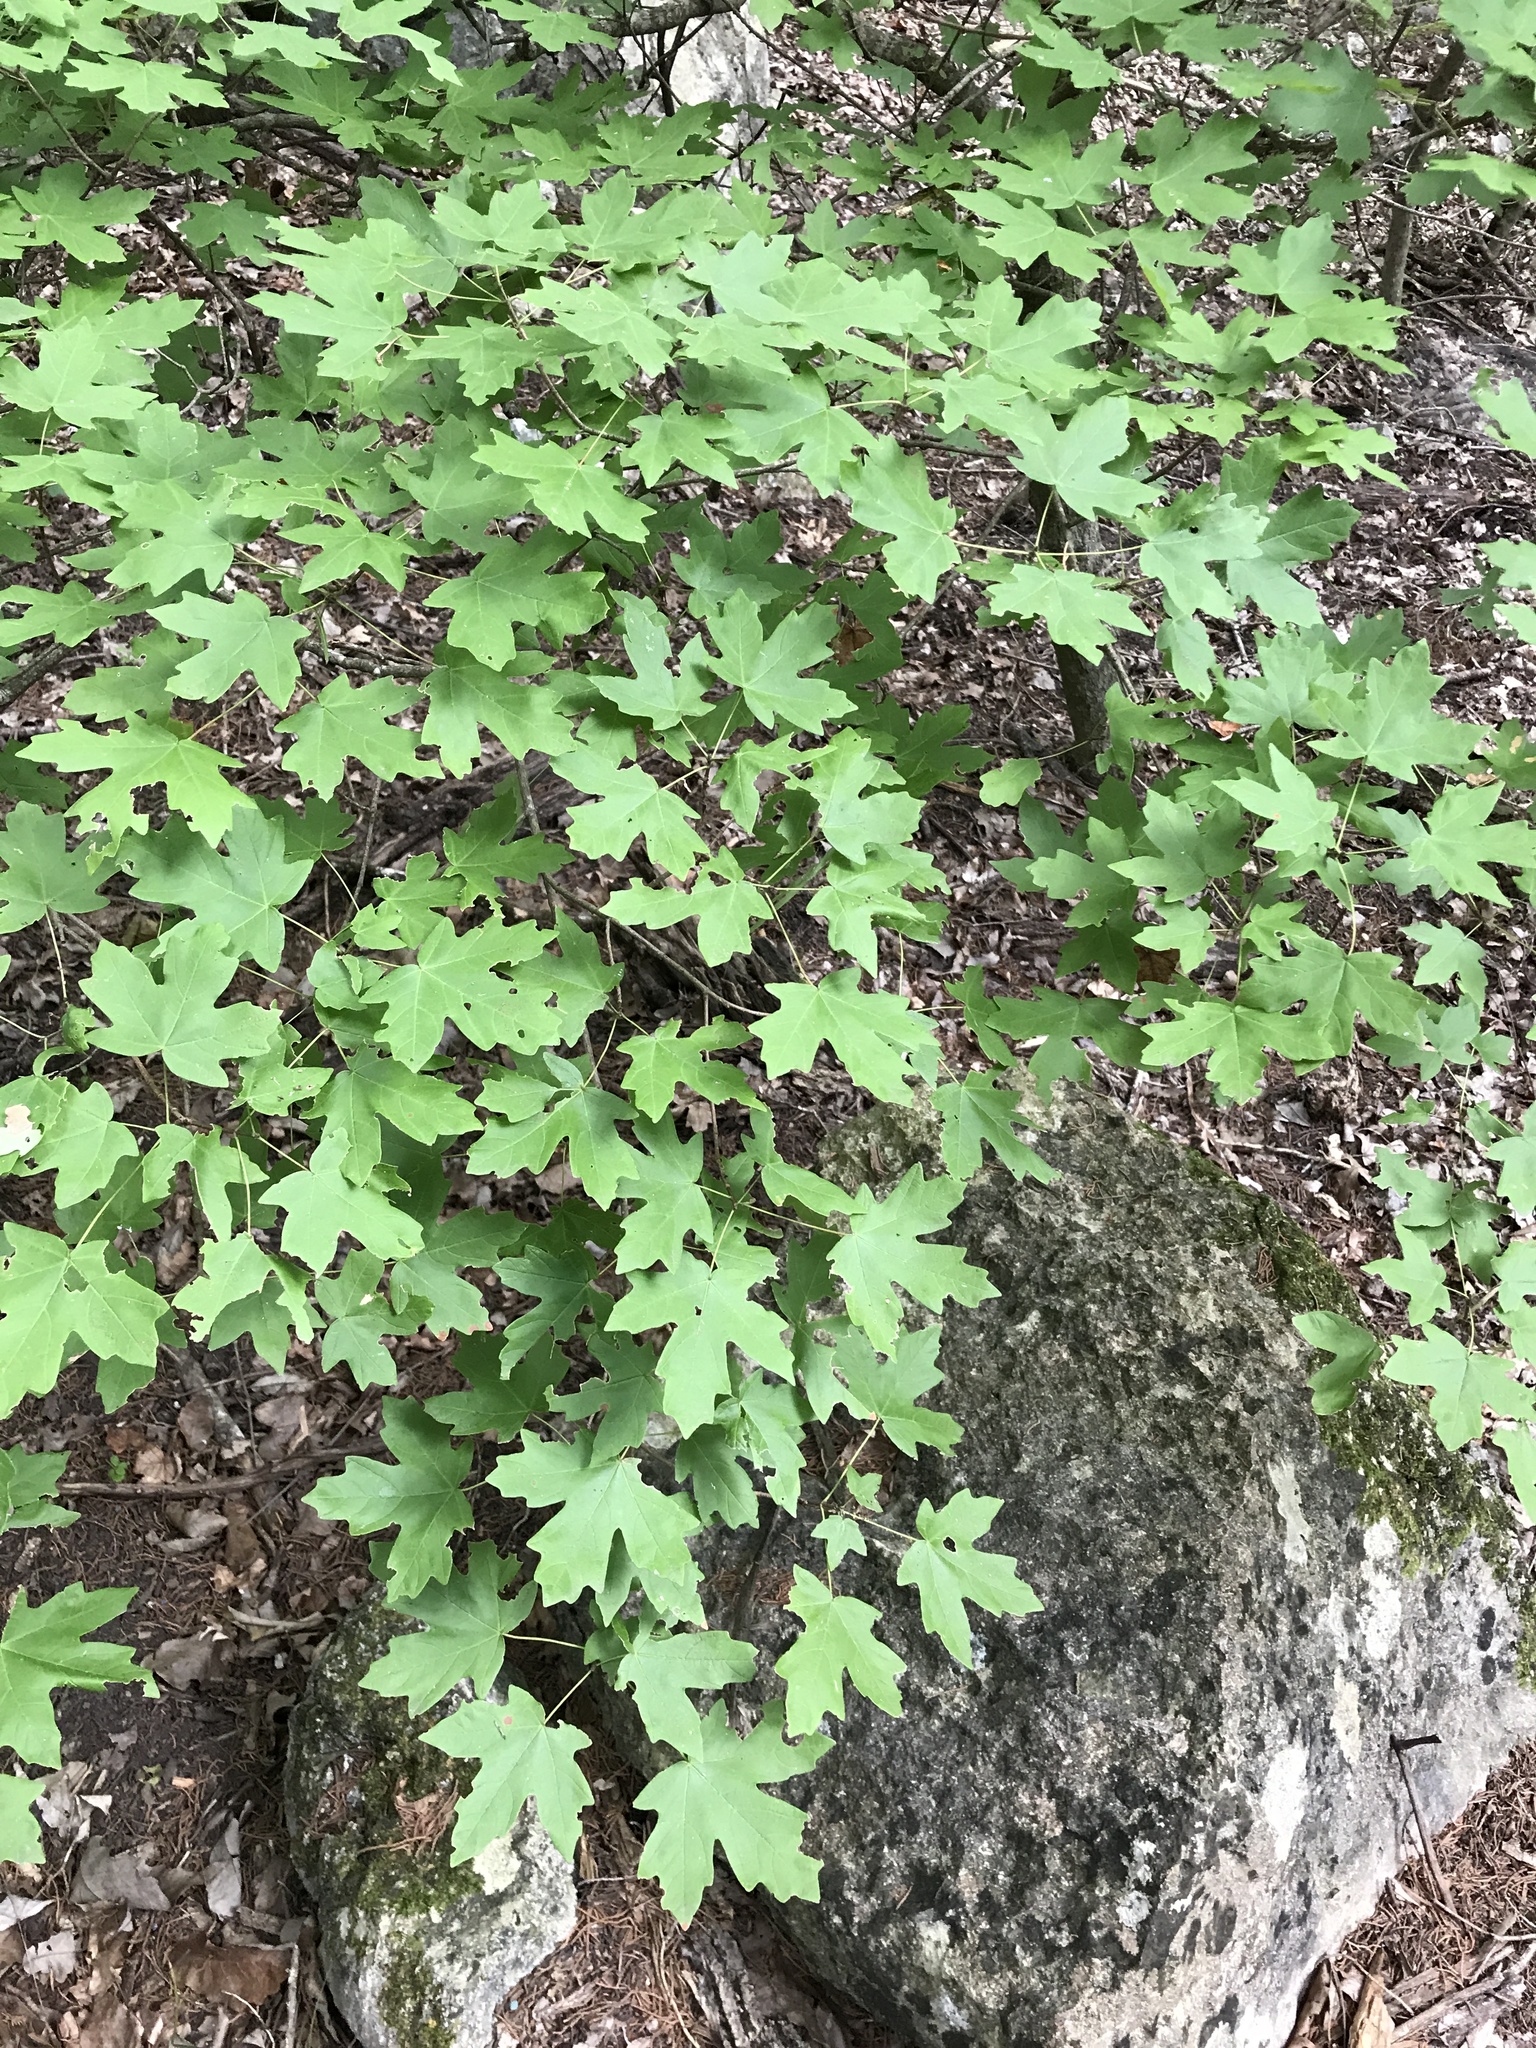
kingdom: Plantae
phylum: Tracheophyta
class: Magnoliopsida
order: Sapindales
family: Sapindaceae
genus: Acer
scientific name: Acer grandidentatum
